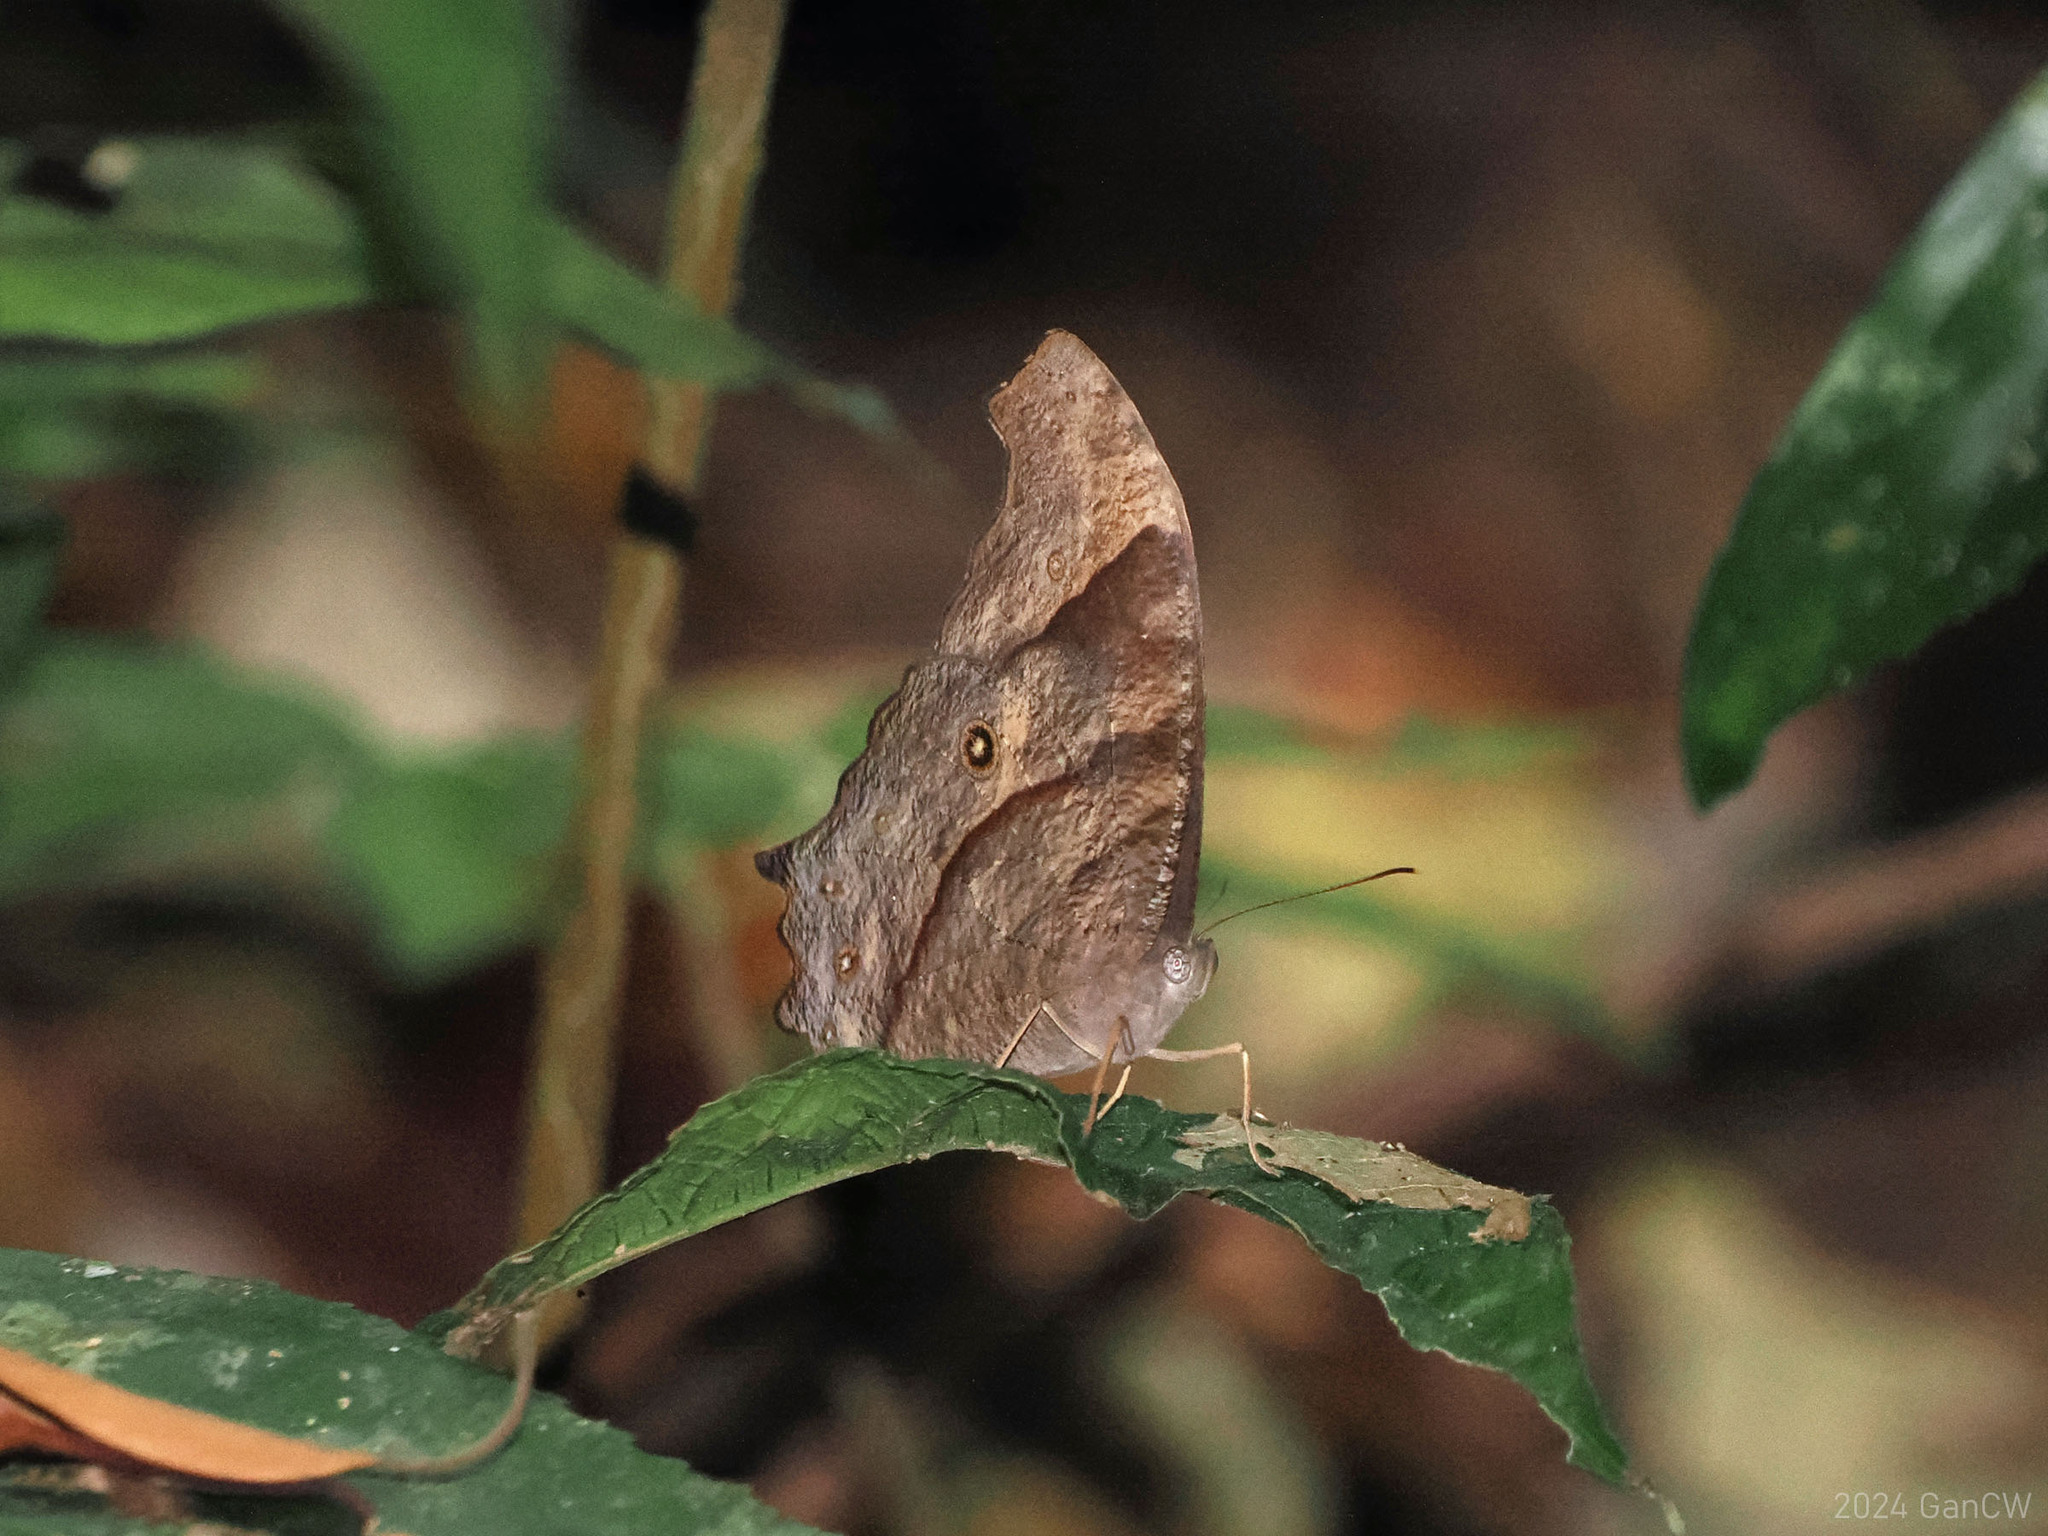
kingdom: Animalia
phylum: Arthropoda
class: Insecta
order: Lepidoptera
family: Nymphalidae
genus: Melanitis
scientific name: Melanitis leda
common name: Twilight brown
